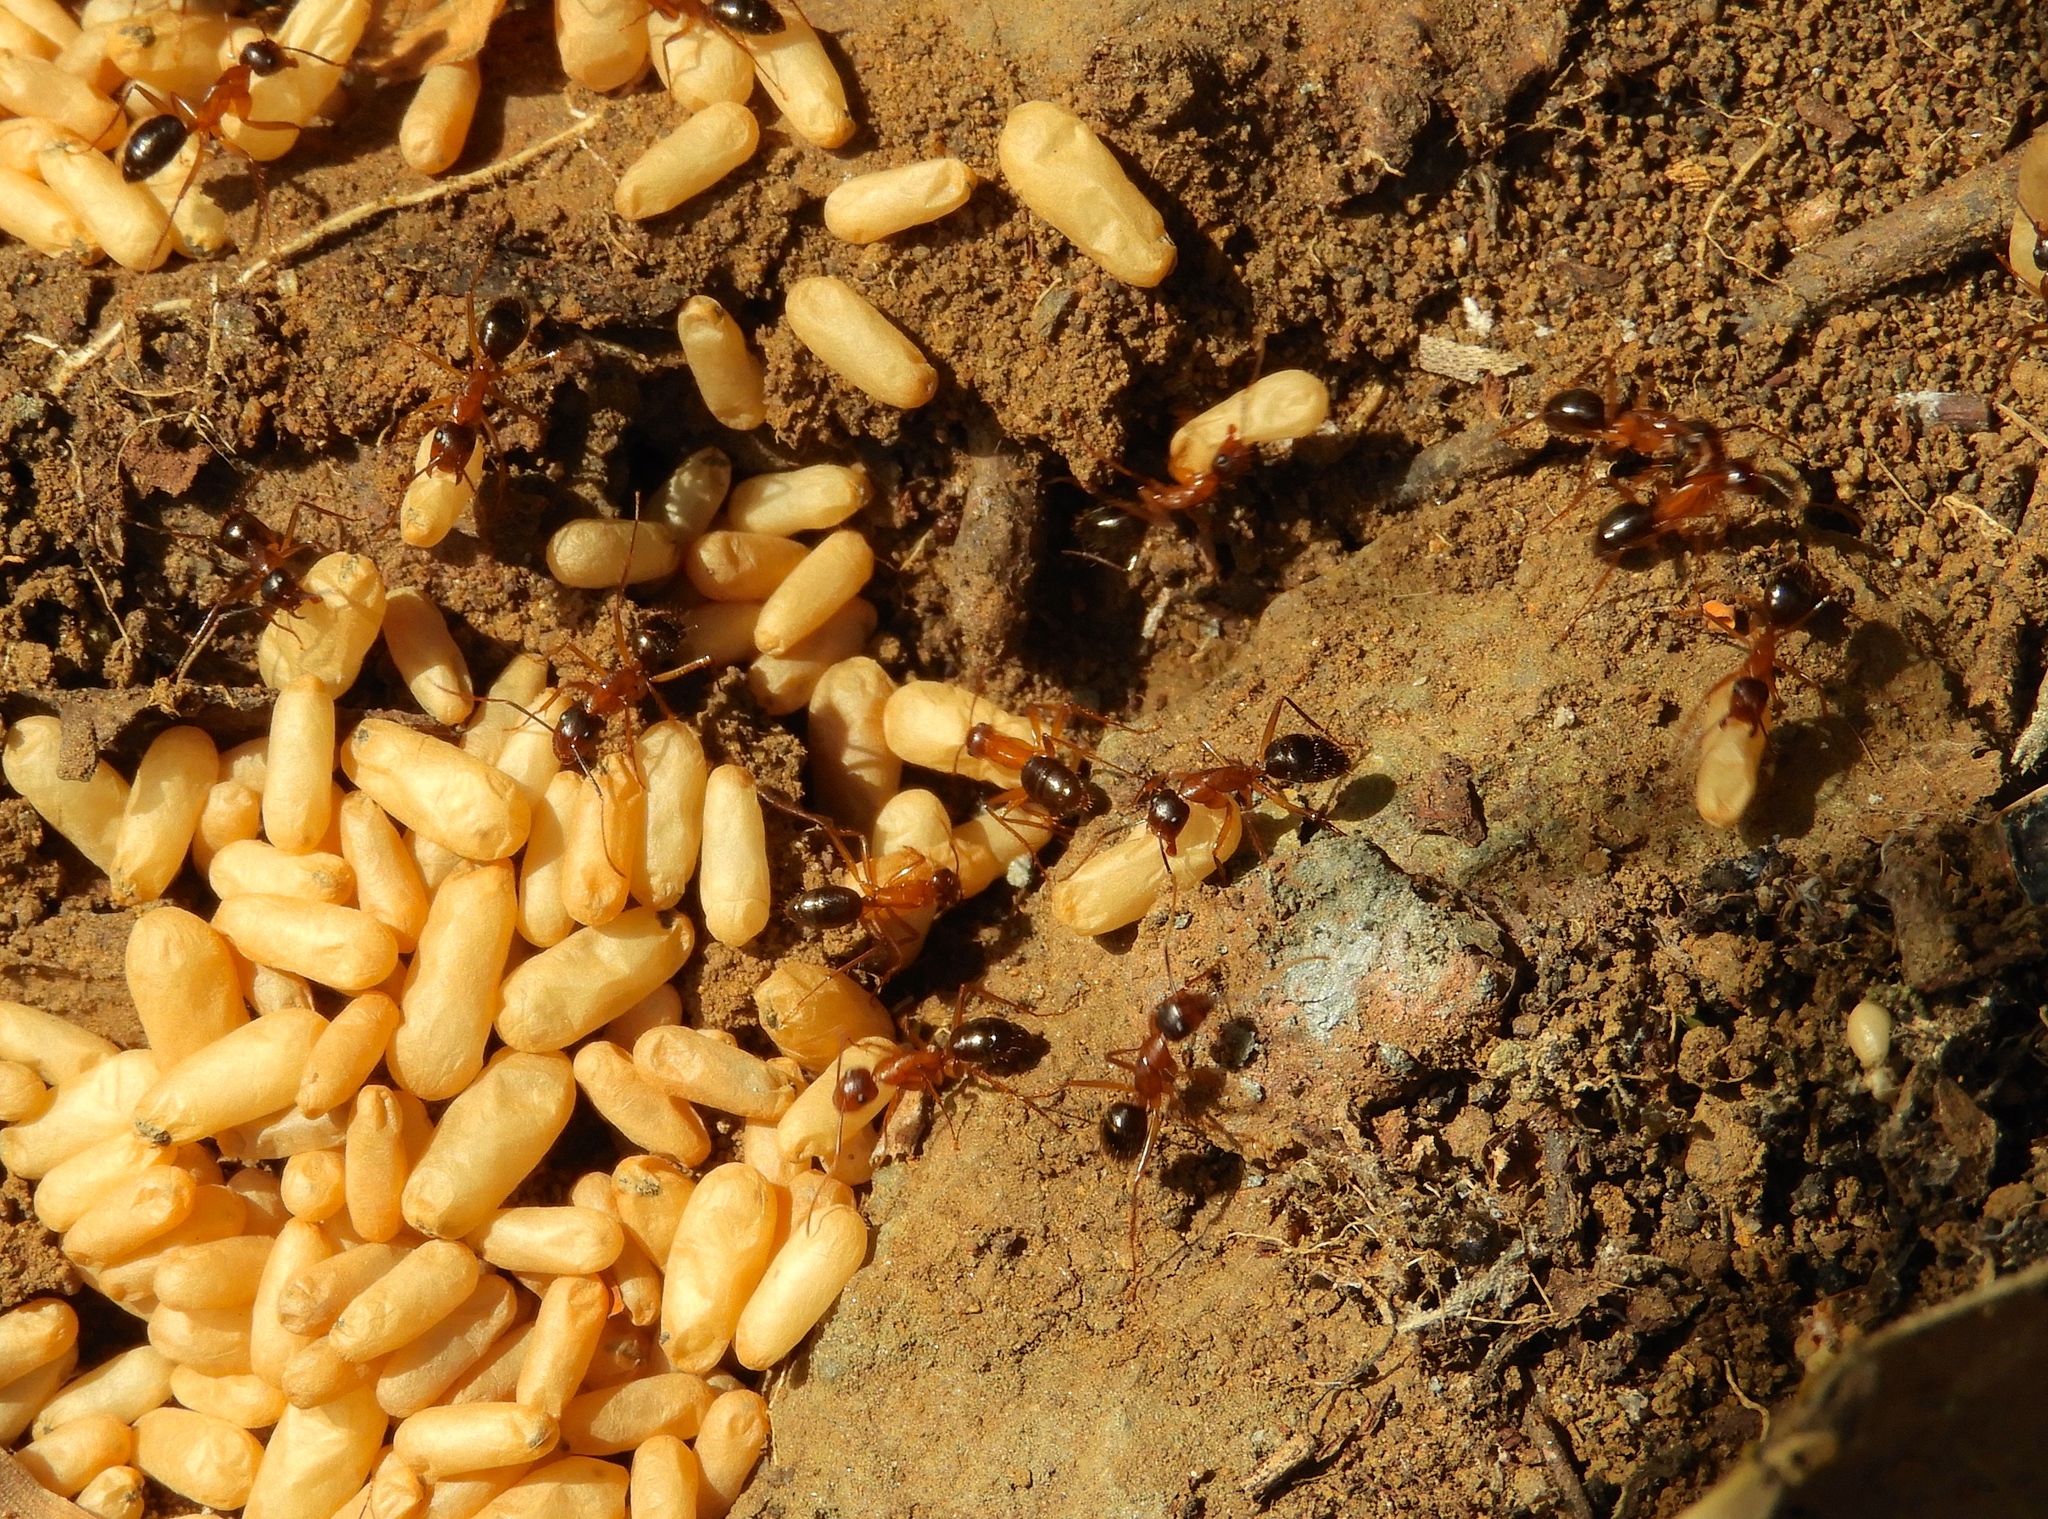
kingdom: Animalia
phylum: Arthropoda
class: Insecta
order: Hymenoptera
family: Formicidae
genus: Camponotus
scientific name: Camponotus
